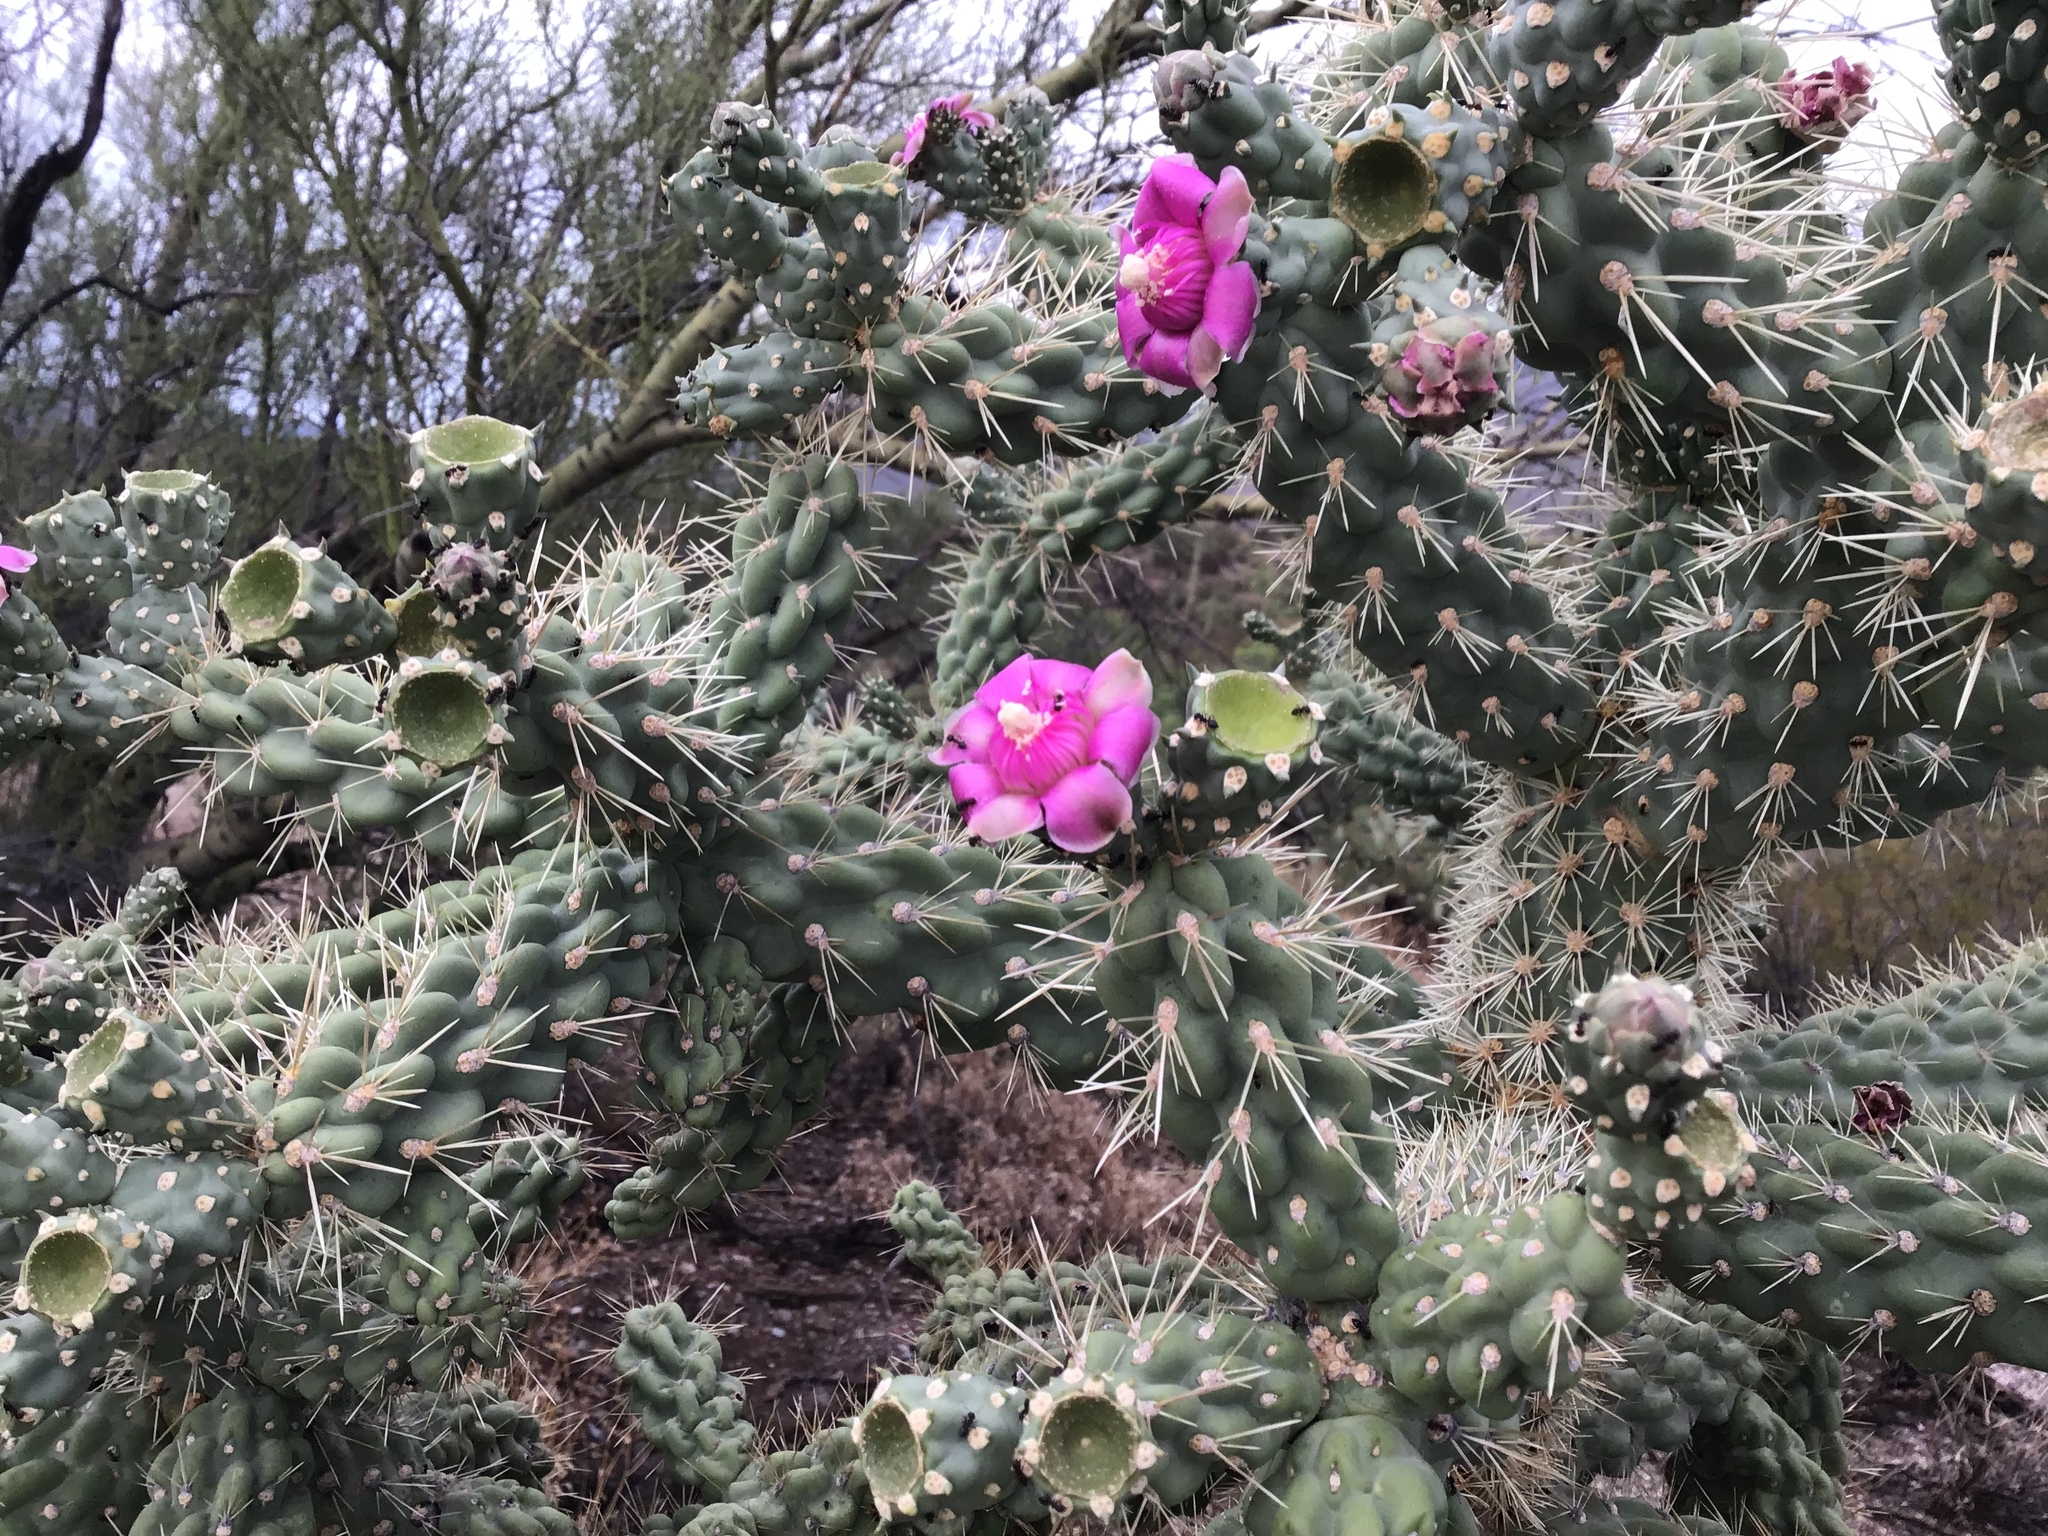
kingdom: Plantae
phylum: Tracheophyta
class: Magnoliopsida
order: Caryophyllales
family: Cactaceae
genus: Cylindropuntia
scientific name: Cylindropuntia fulgida
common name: Jumping cholla
